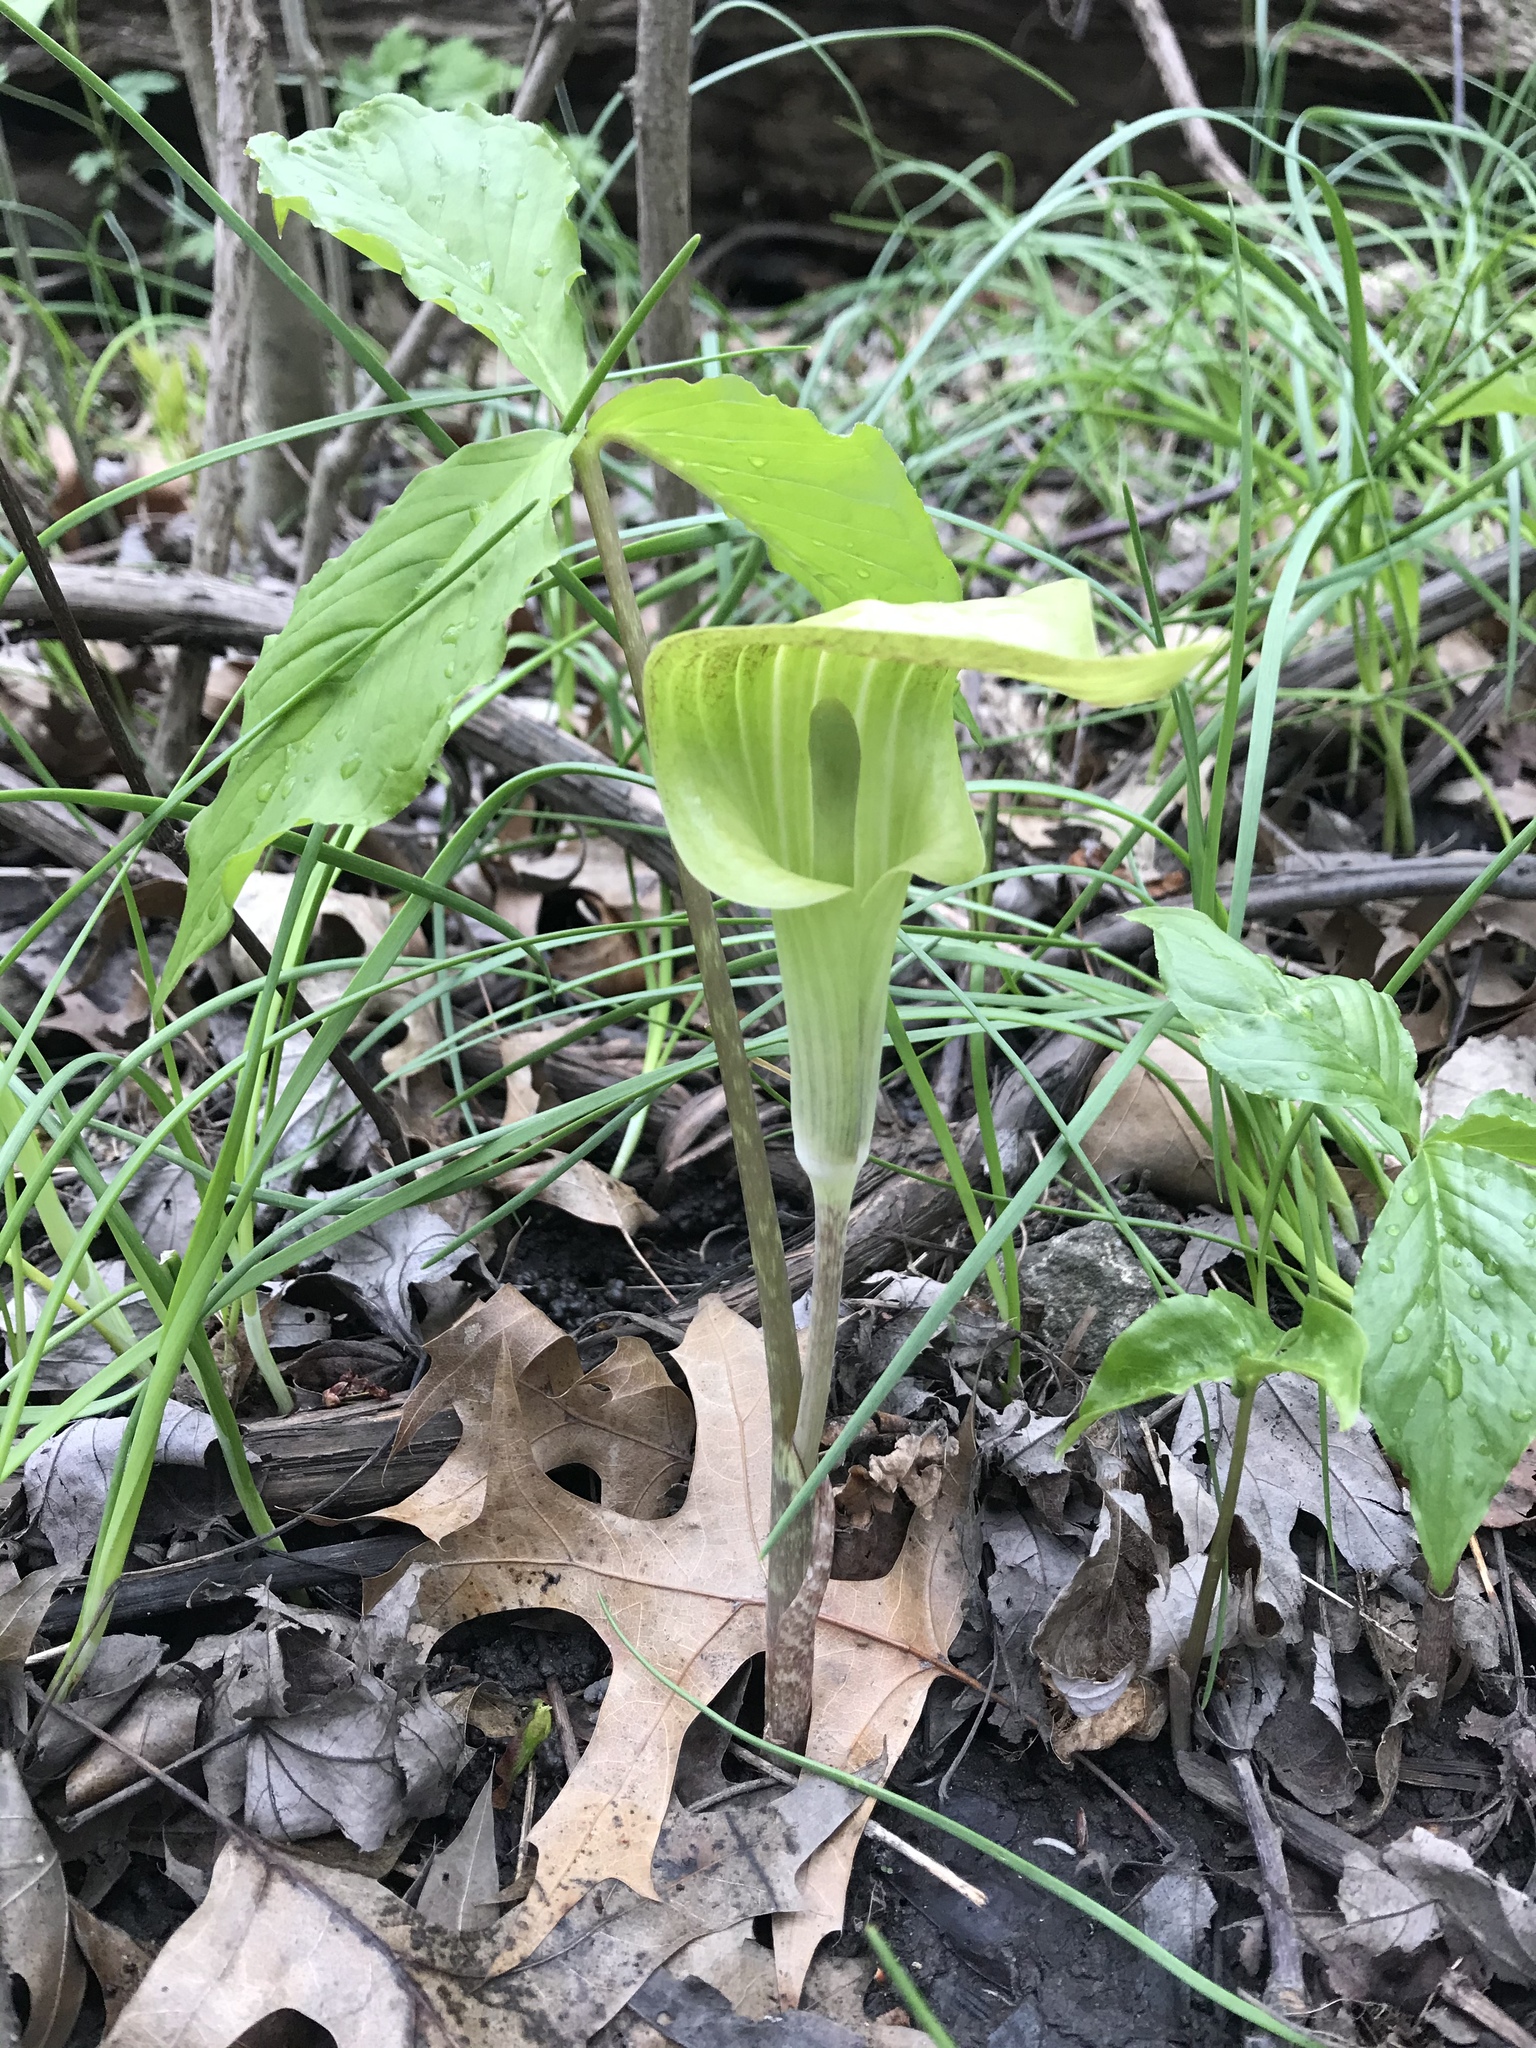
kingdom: Plantae
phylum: Tracheophyta
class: Liliopsida
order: Alismatales
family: Araceae
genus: Arisaema
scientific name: Arisaema triphyllum
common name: Jack-in-the-pulpit
